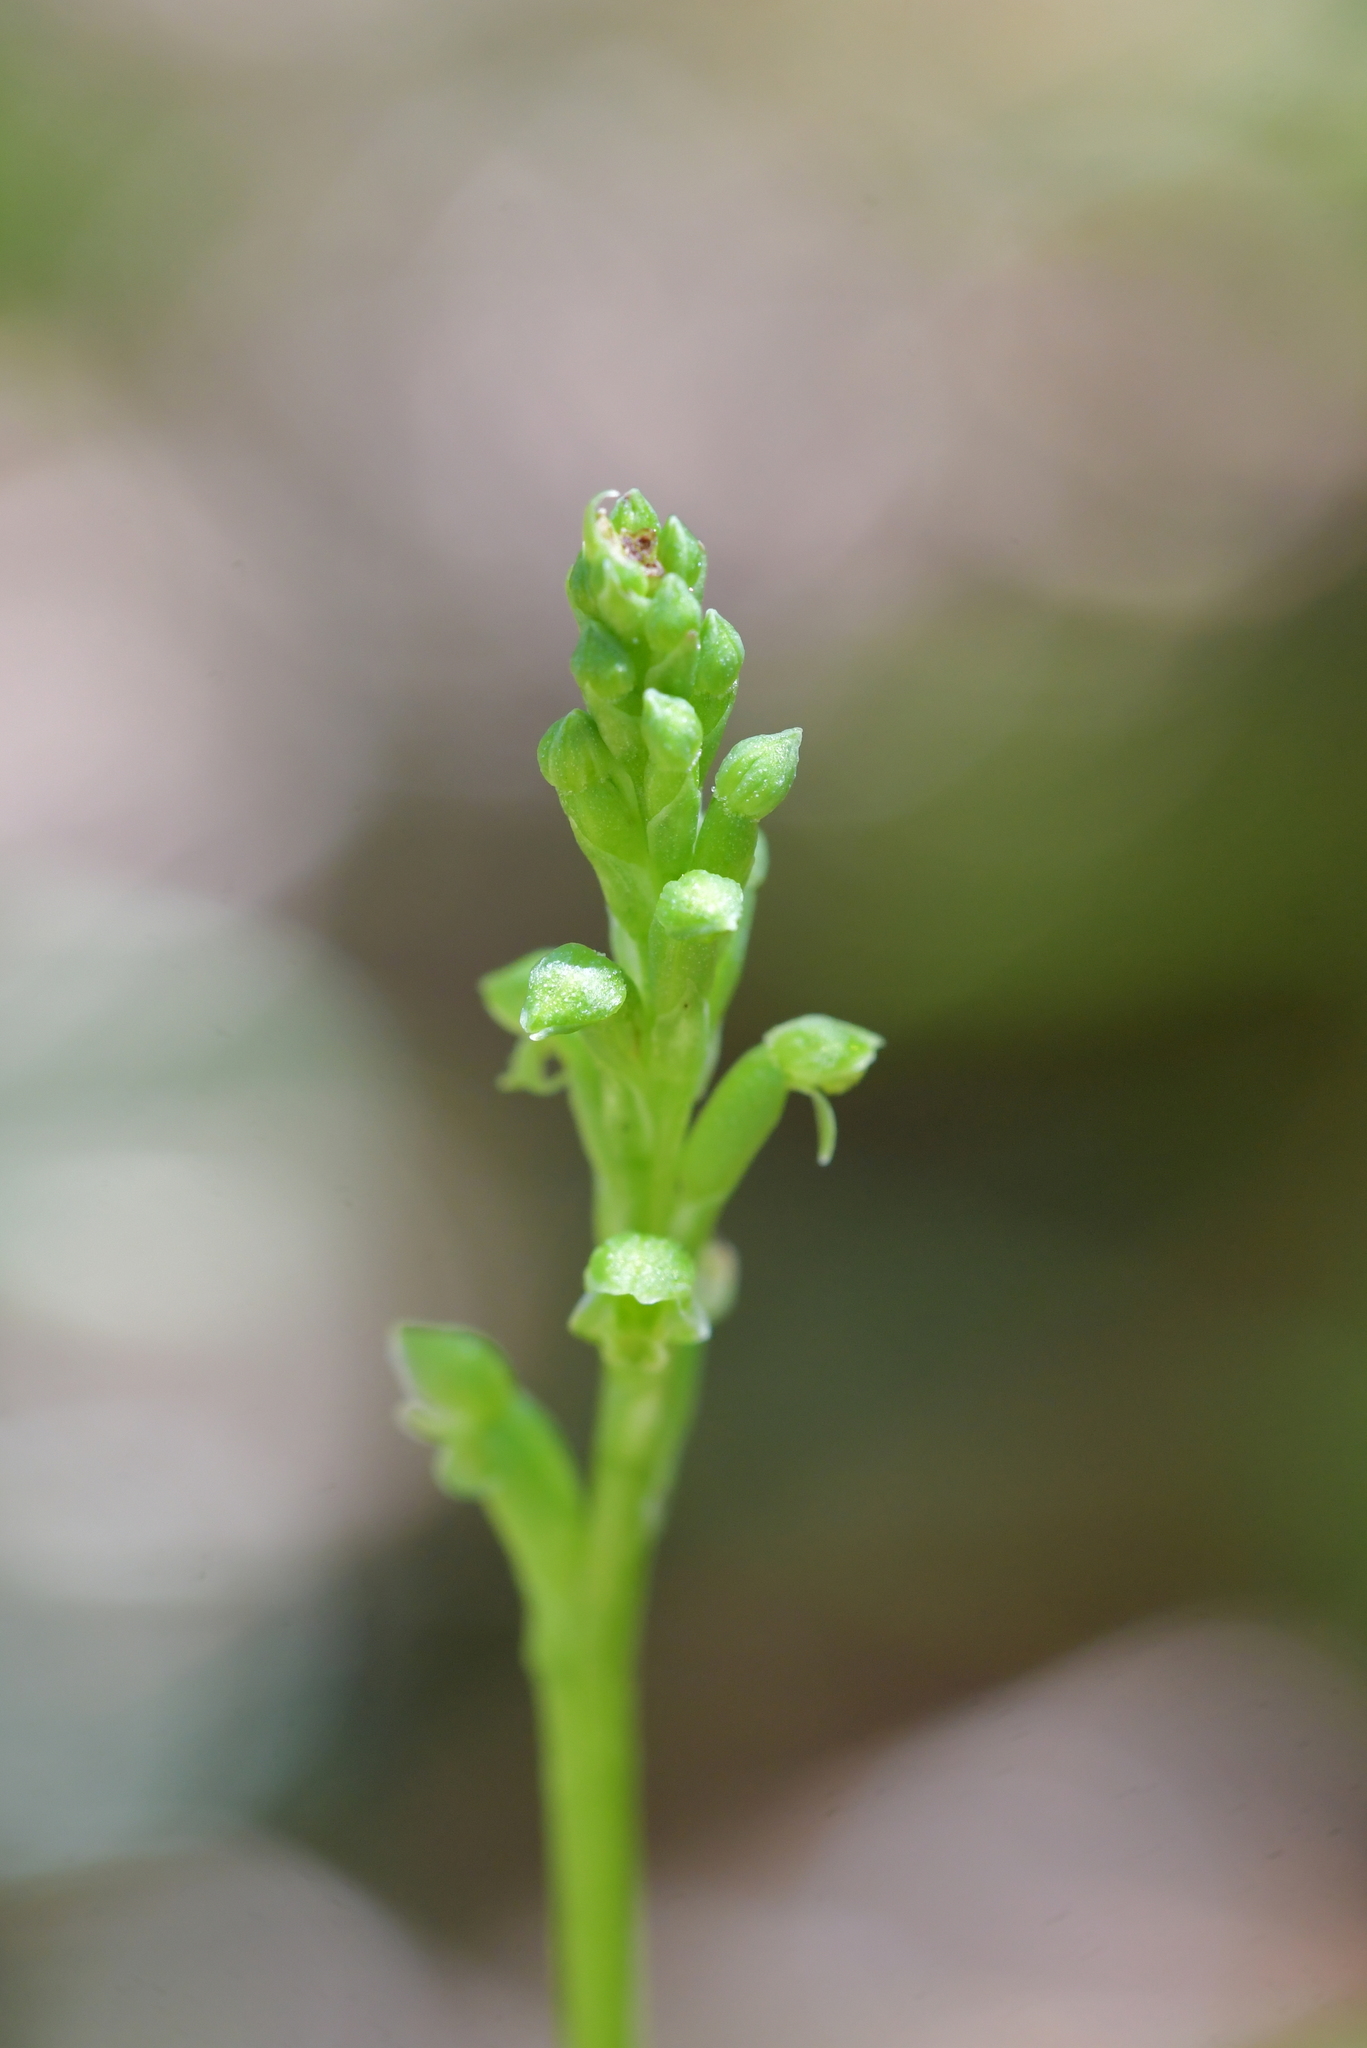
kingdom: Plantae
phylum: Tracheophyta
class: Liliopsida
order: Asparagales
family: Orchidaceae
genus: Microtis
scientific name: Microtis unifolia
